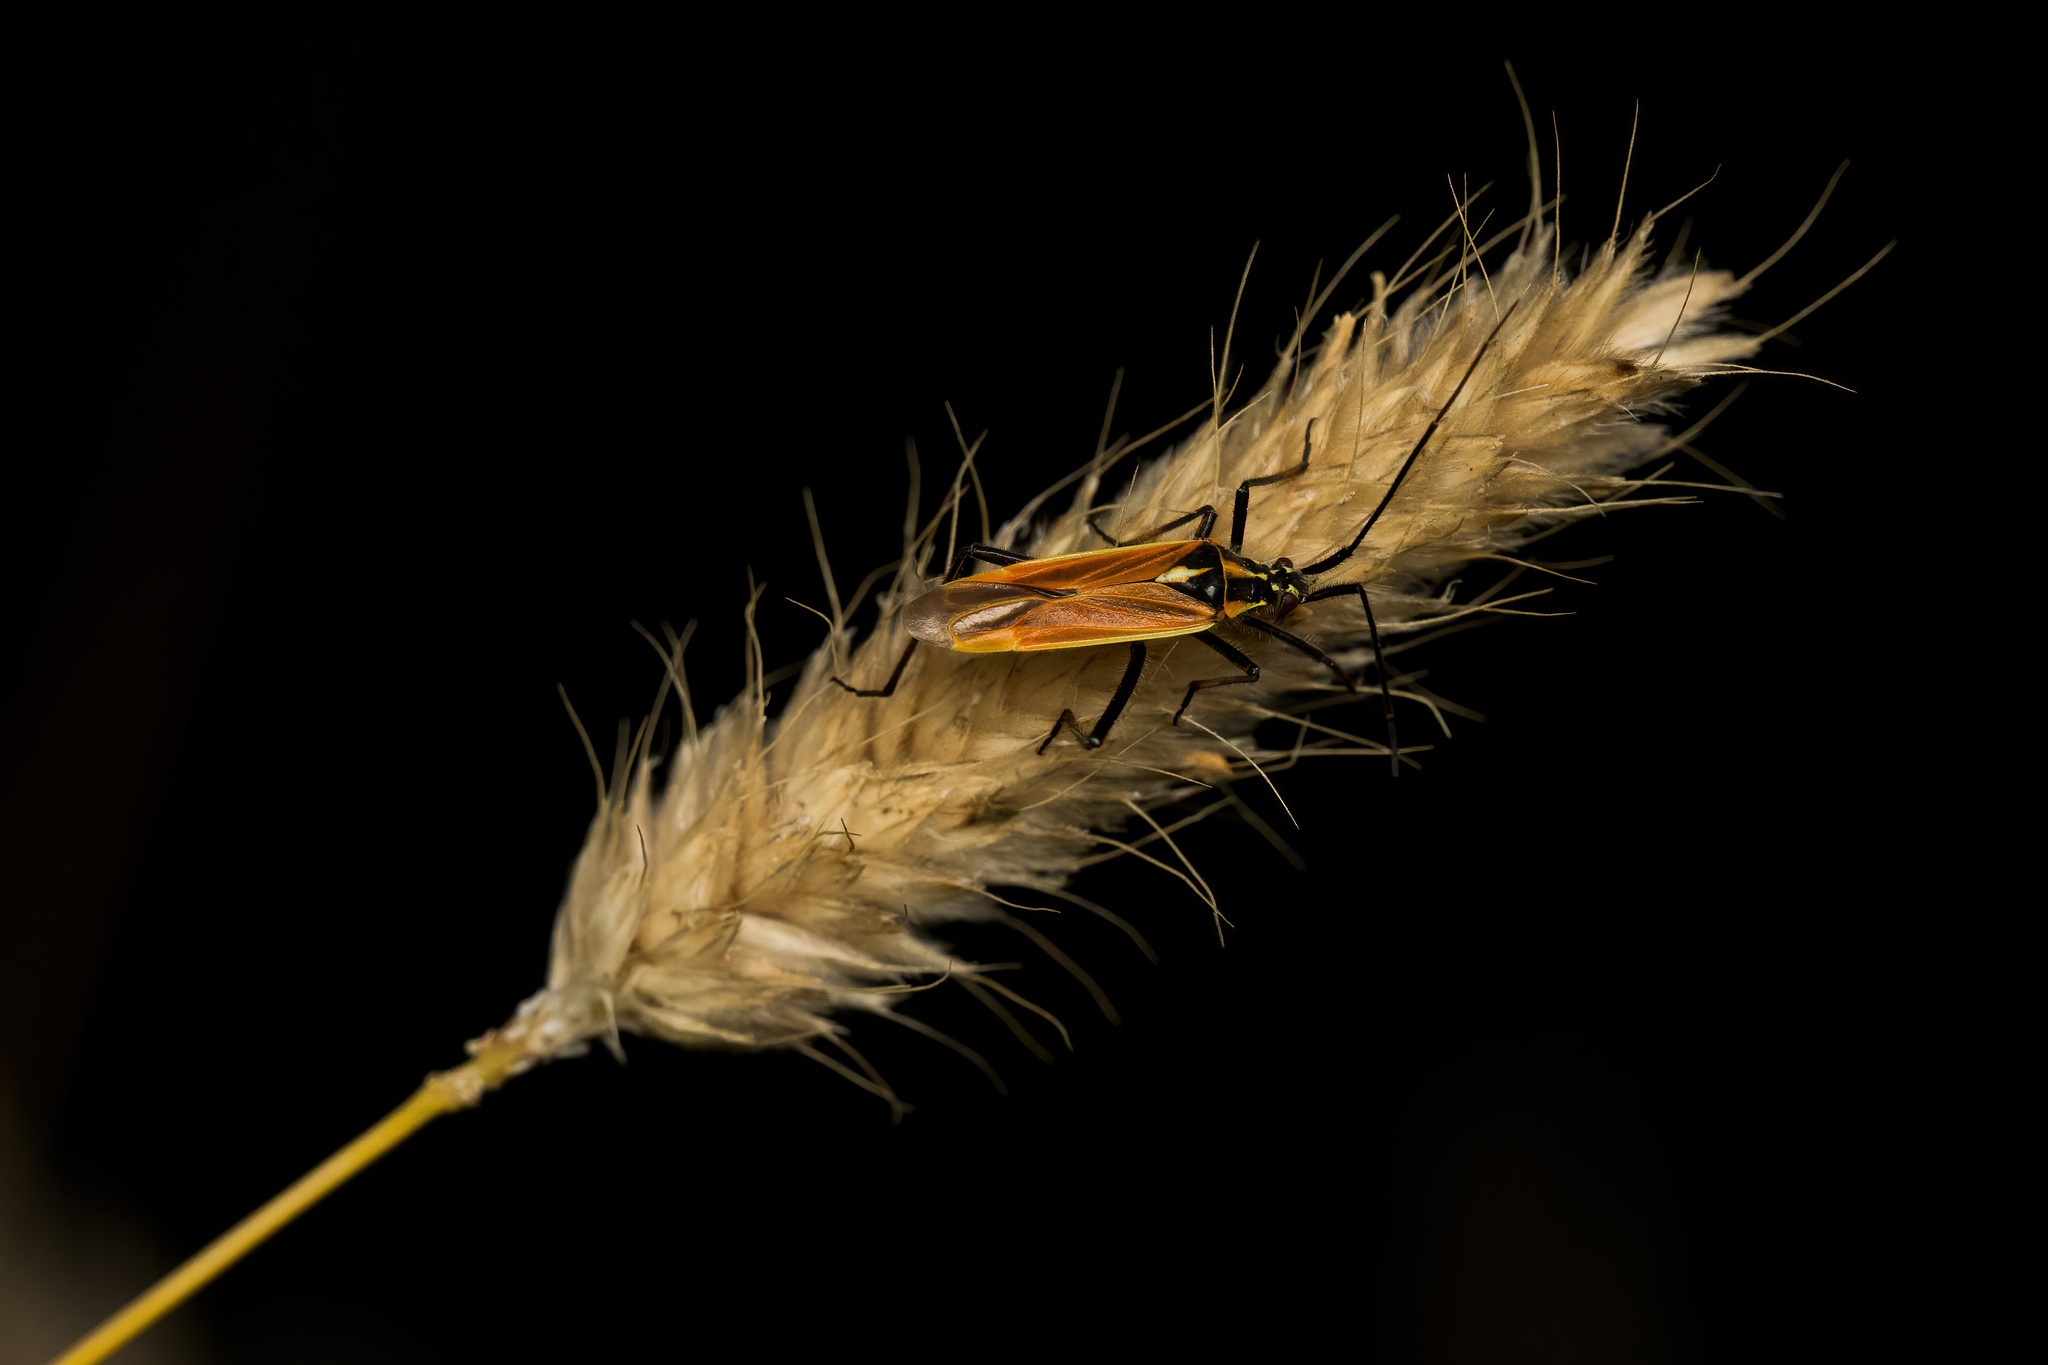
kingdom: Animalia
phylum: Arthropoda
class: Insecta
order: Hemiptera
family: Miridae
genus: Leptopterna
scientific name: Leptopterna dolabrata
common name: Meadow plant bug
